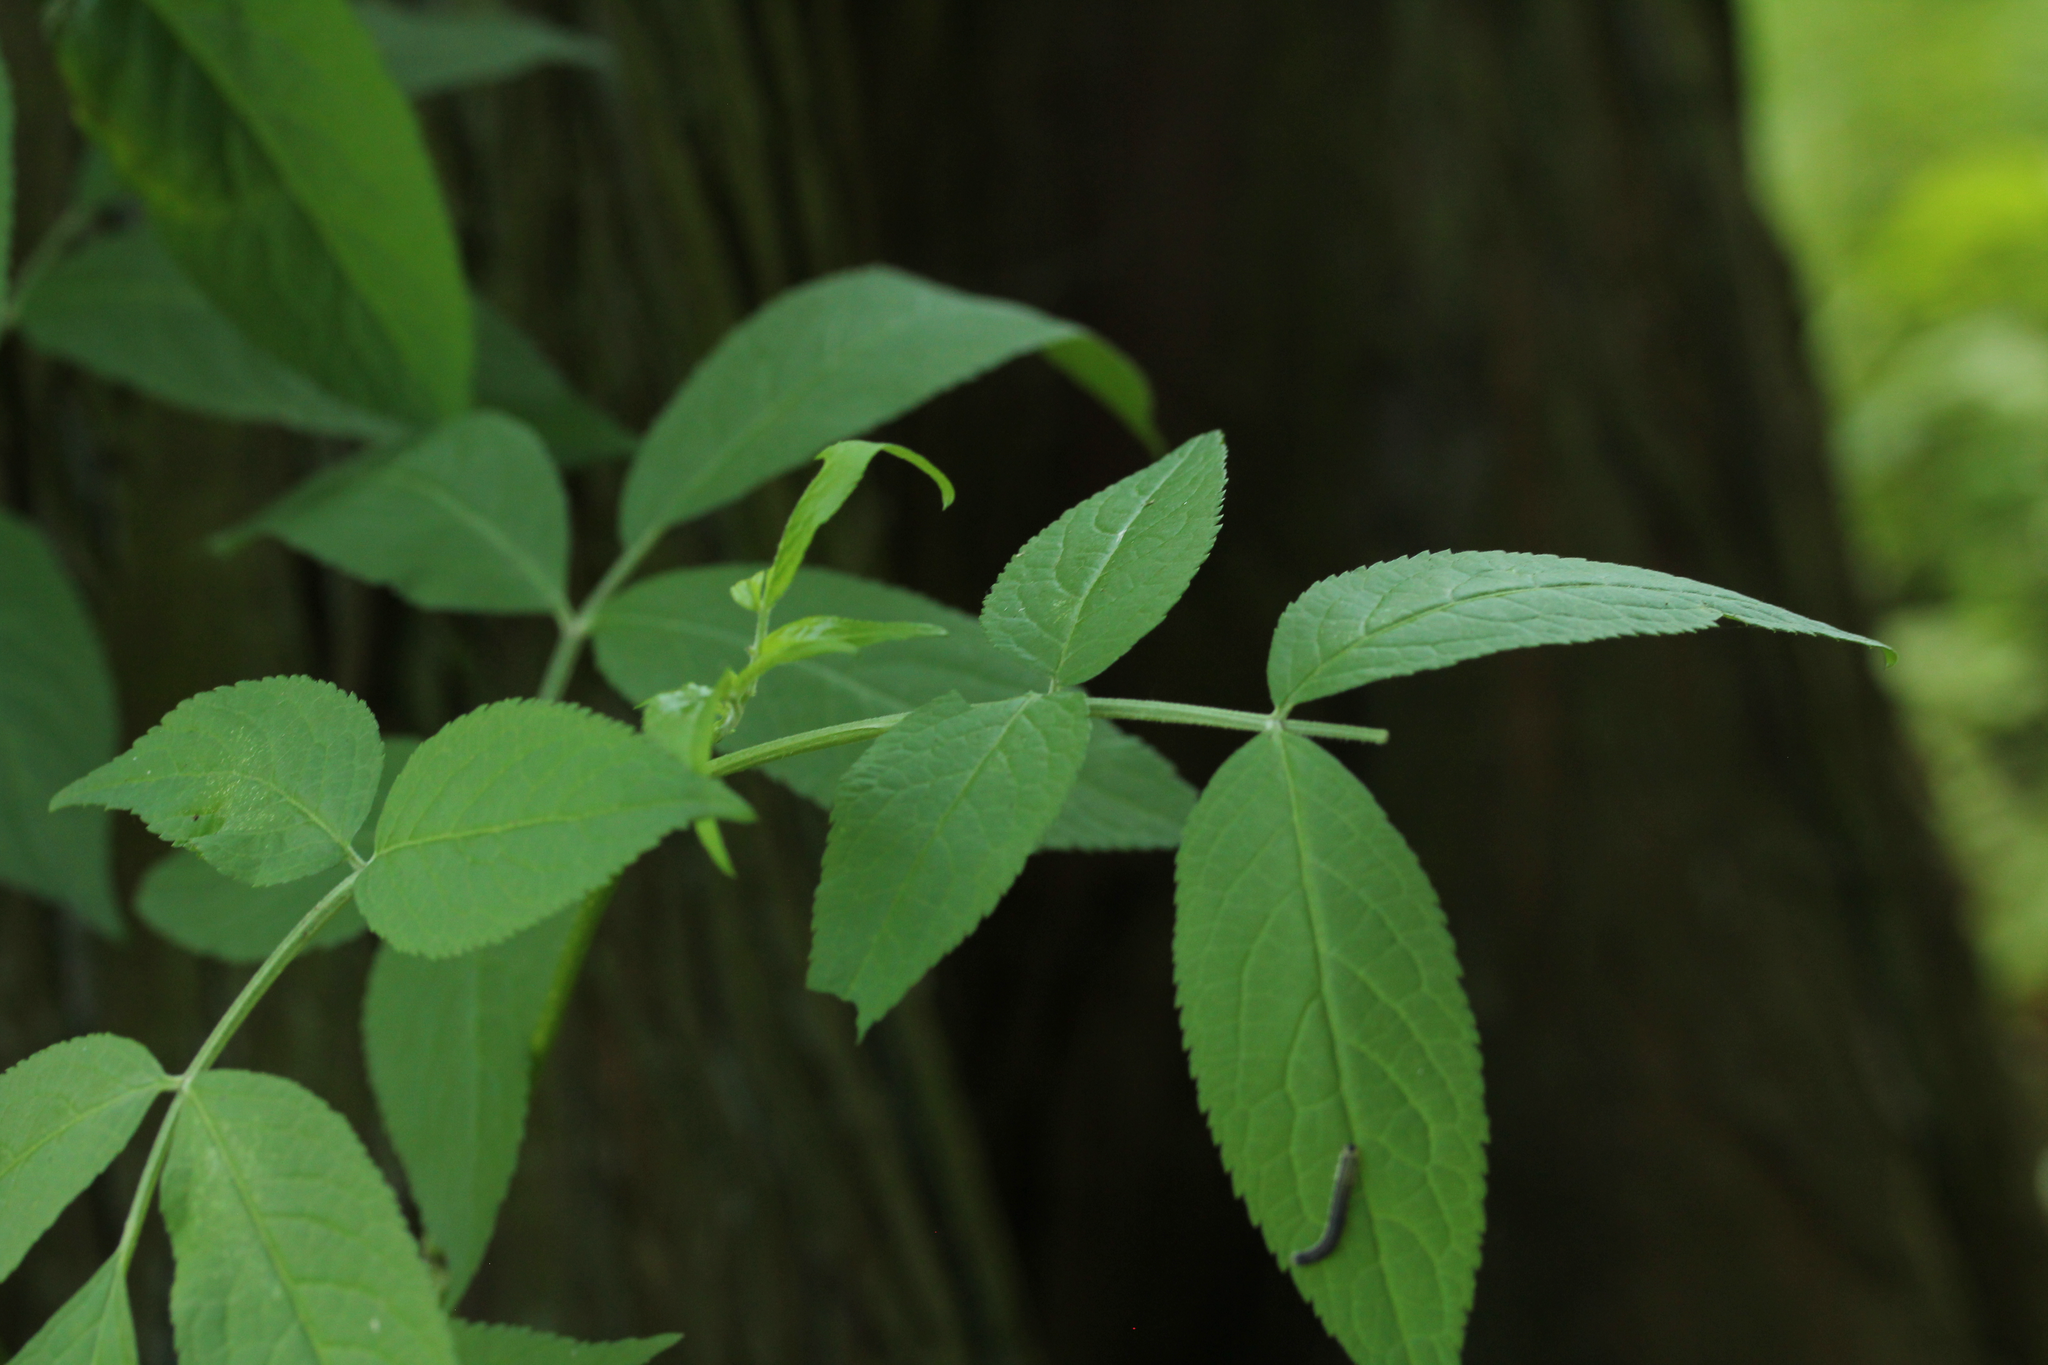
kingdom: Plantae
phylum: Tracheophyta
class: Magnoliopsida
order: Dipsacales
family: Viburnaceae
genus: Sambucus
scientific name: Sambucus nigra
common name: Elder
